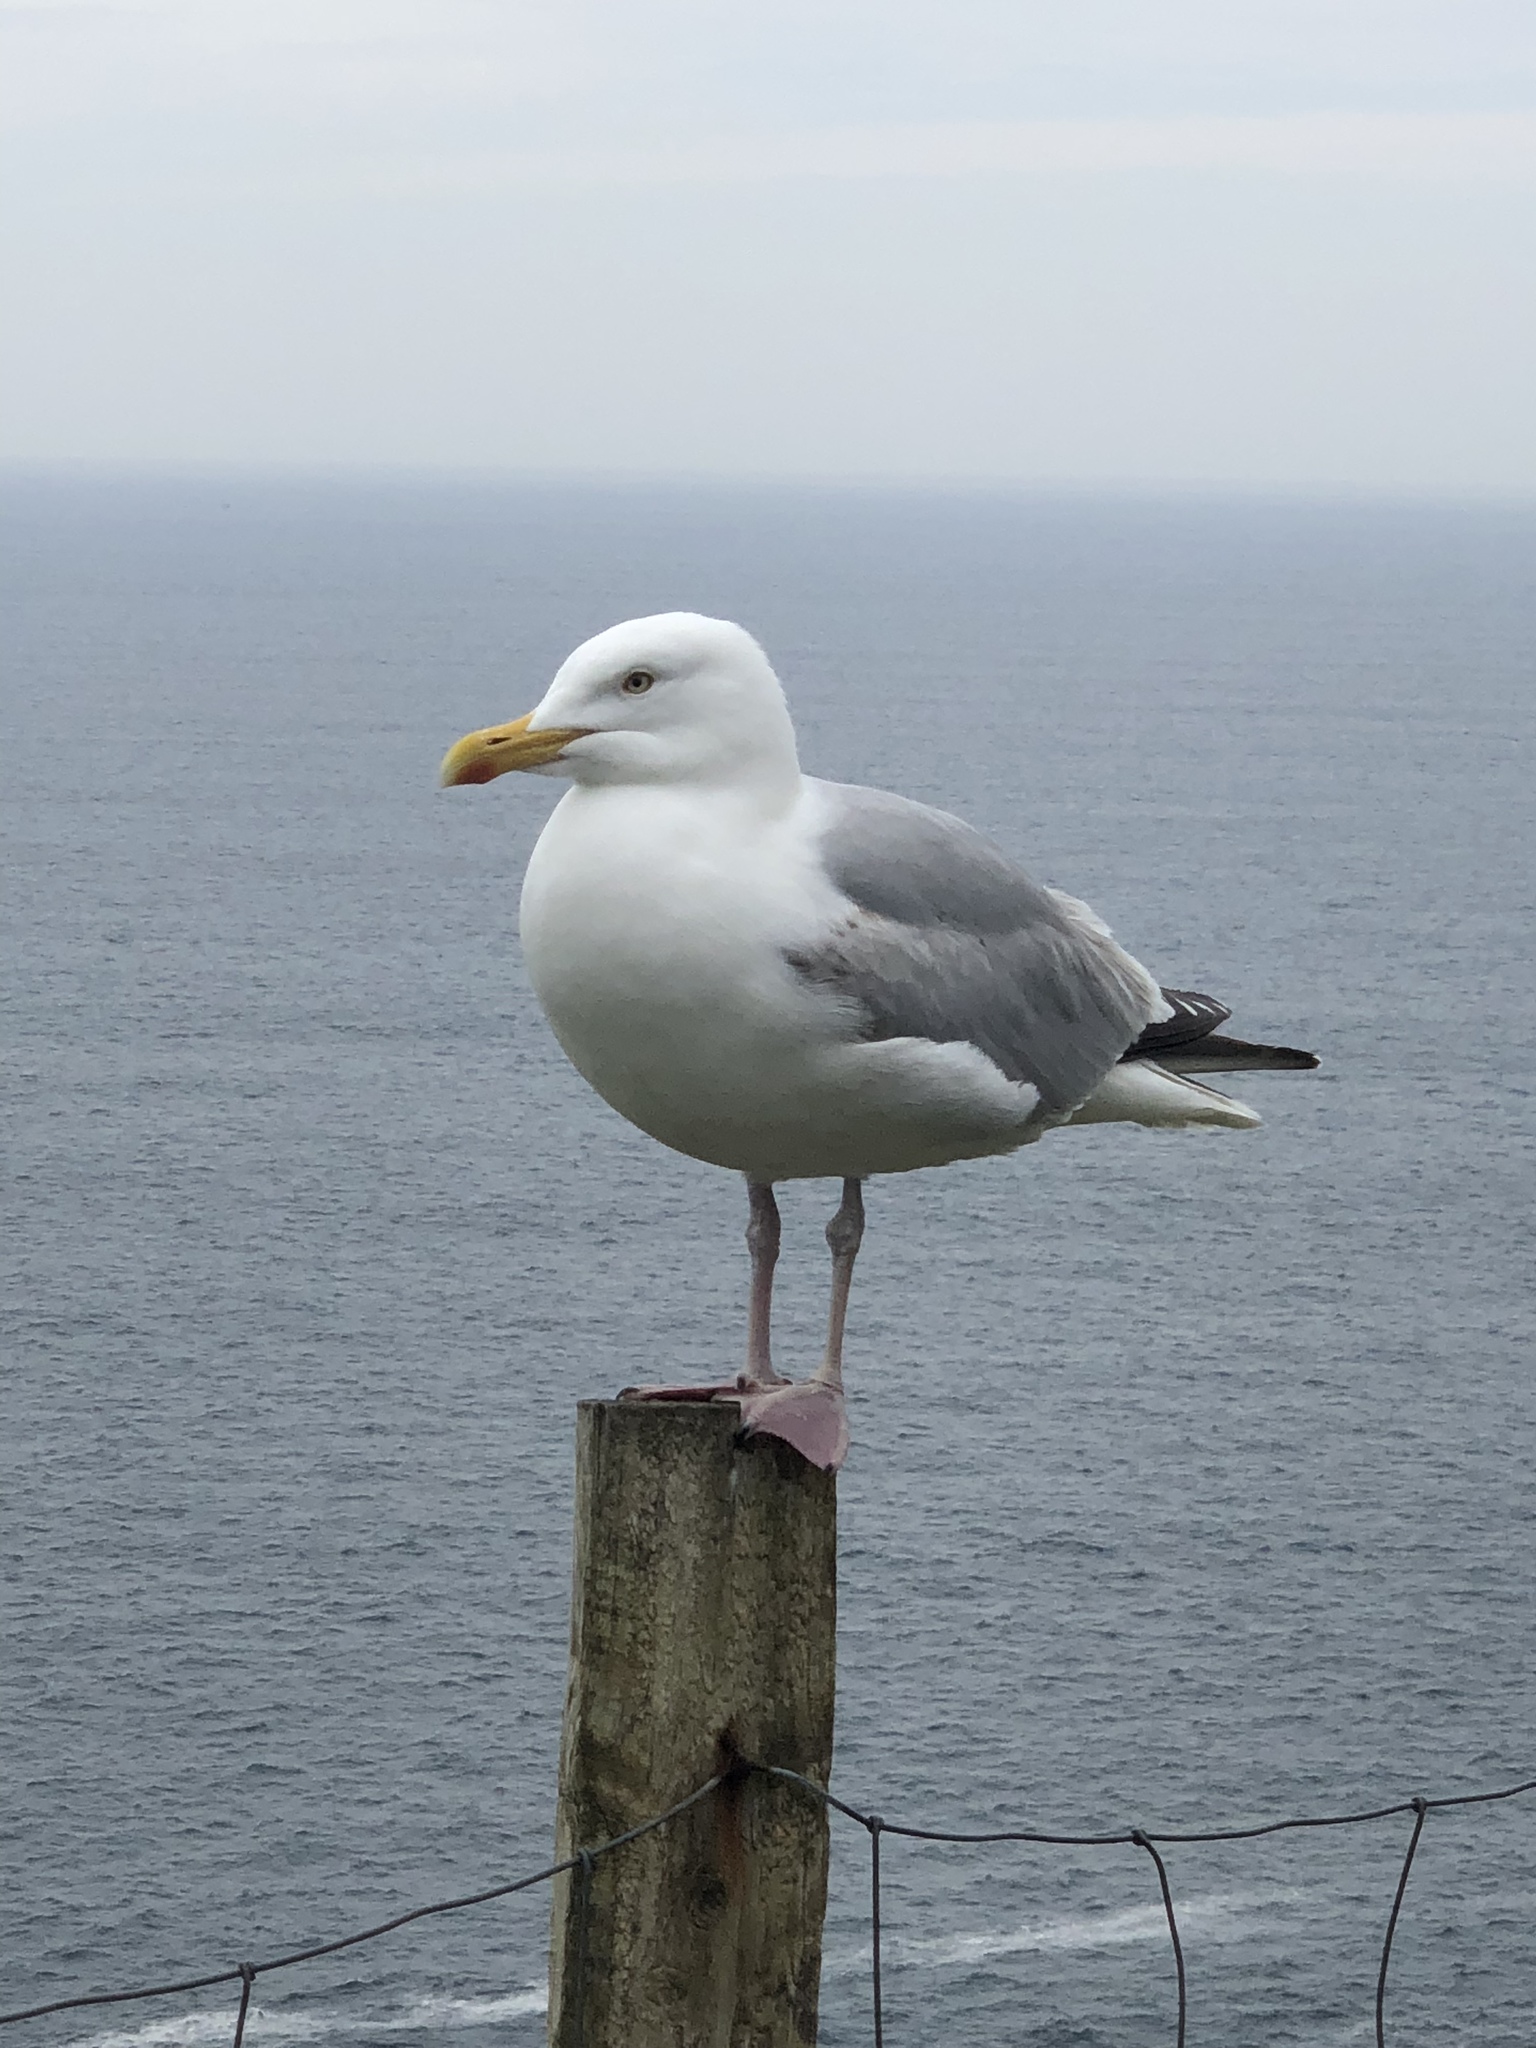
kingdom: Animalia
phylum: Chordata
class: Aves
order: Charadriiformes
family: Laridae
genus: Larus
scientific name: Larus argentatus
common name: Herring gull
